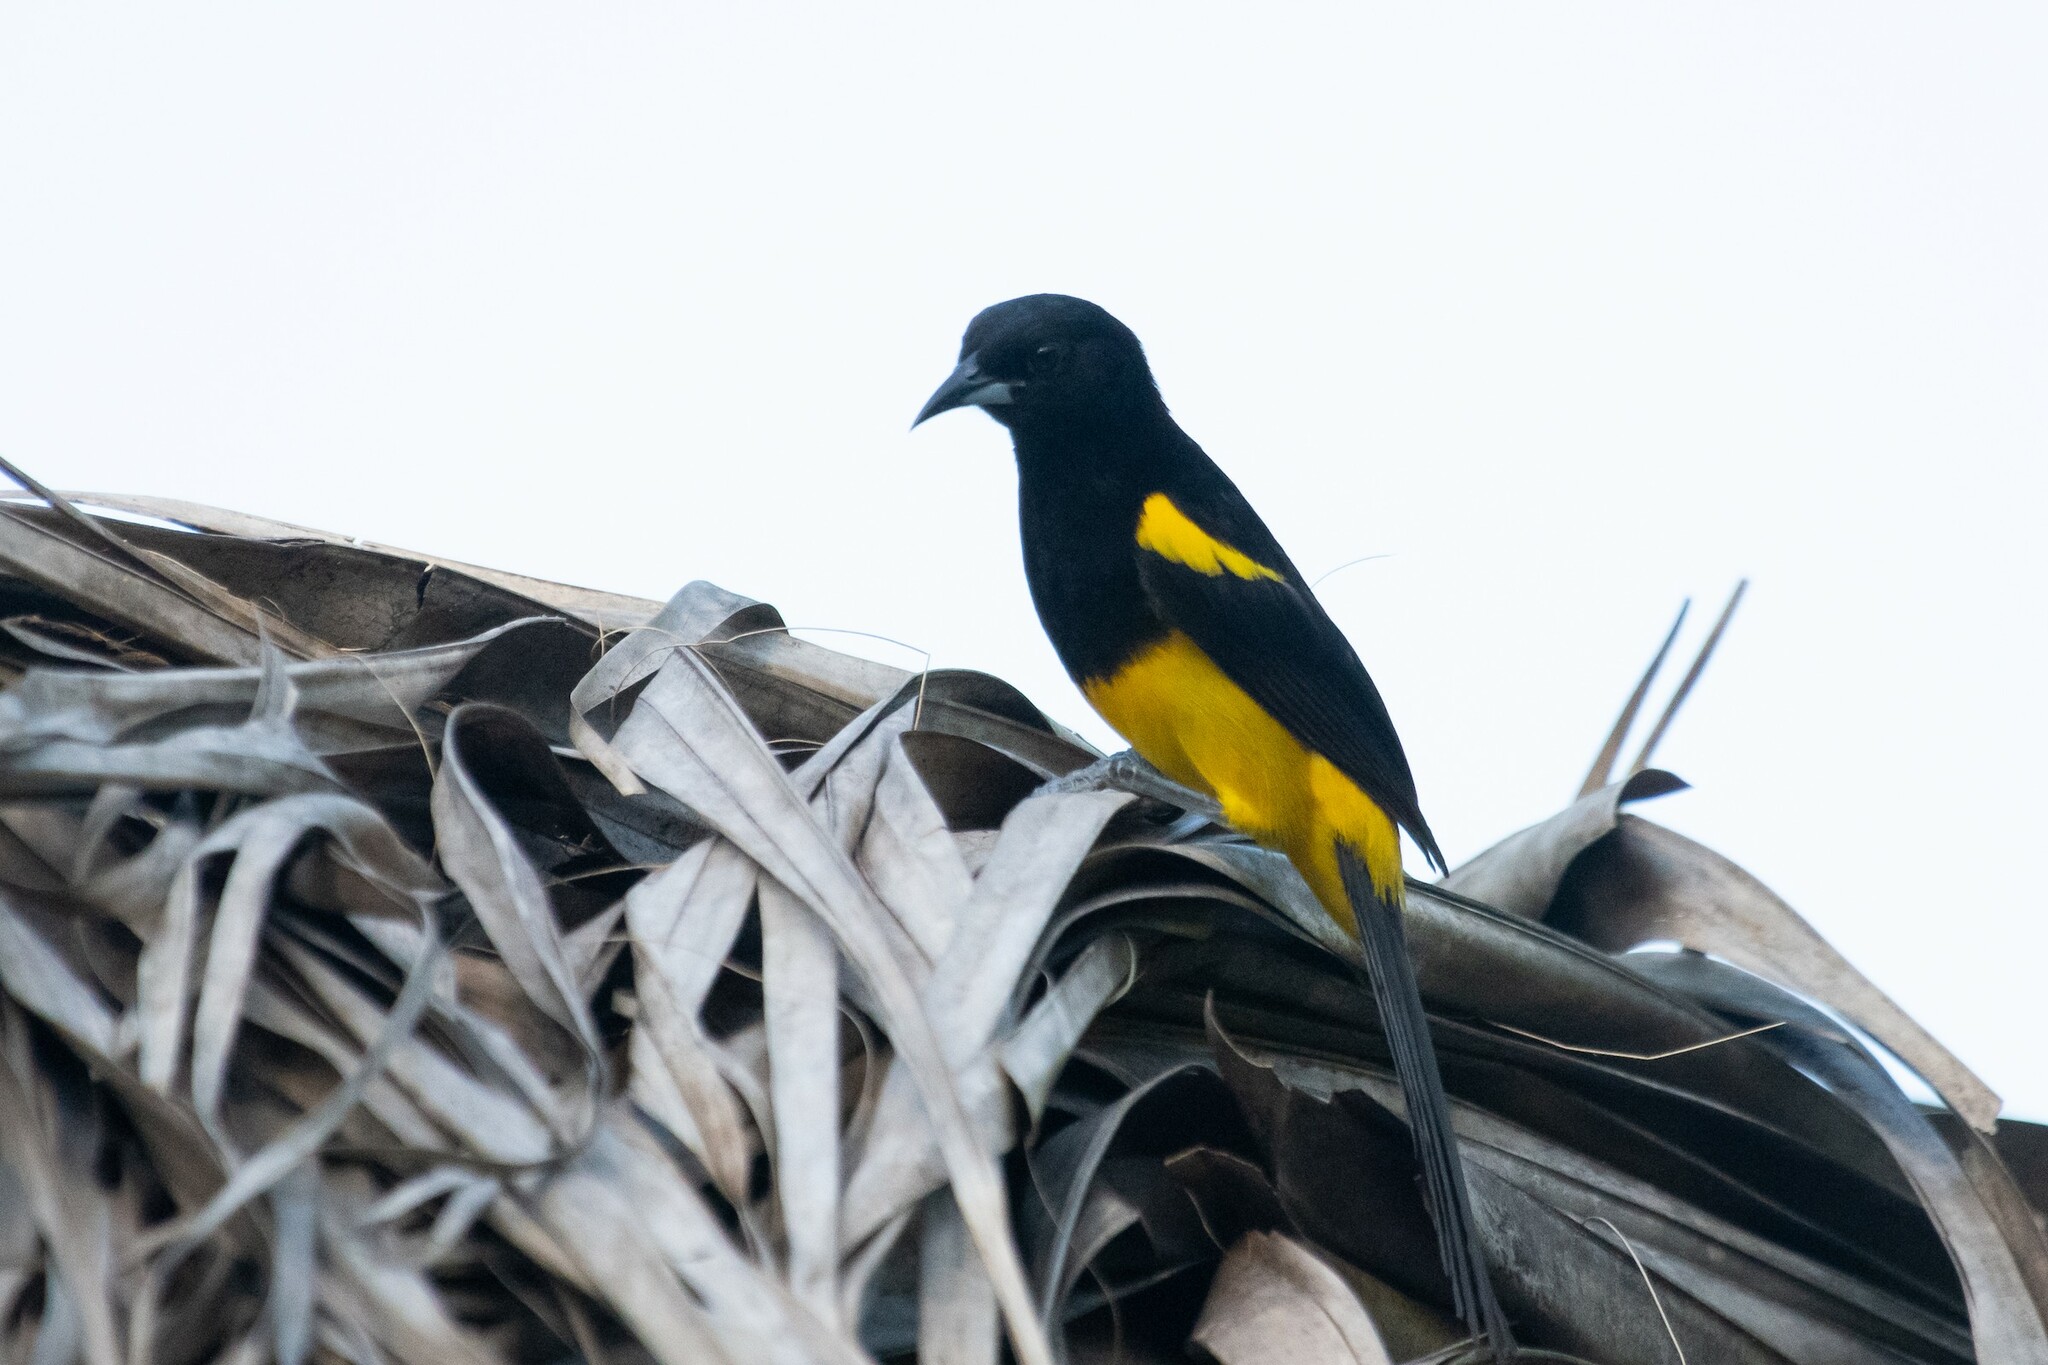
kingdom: Animalia
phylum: Chordata
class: Aves
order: Passeriformes
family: Icteridae
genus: Icterus
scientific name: Icterus prosthemelas
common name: Black-cowled oriole
